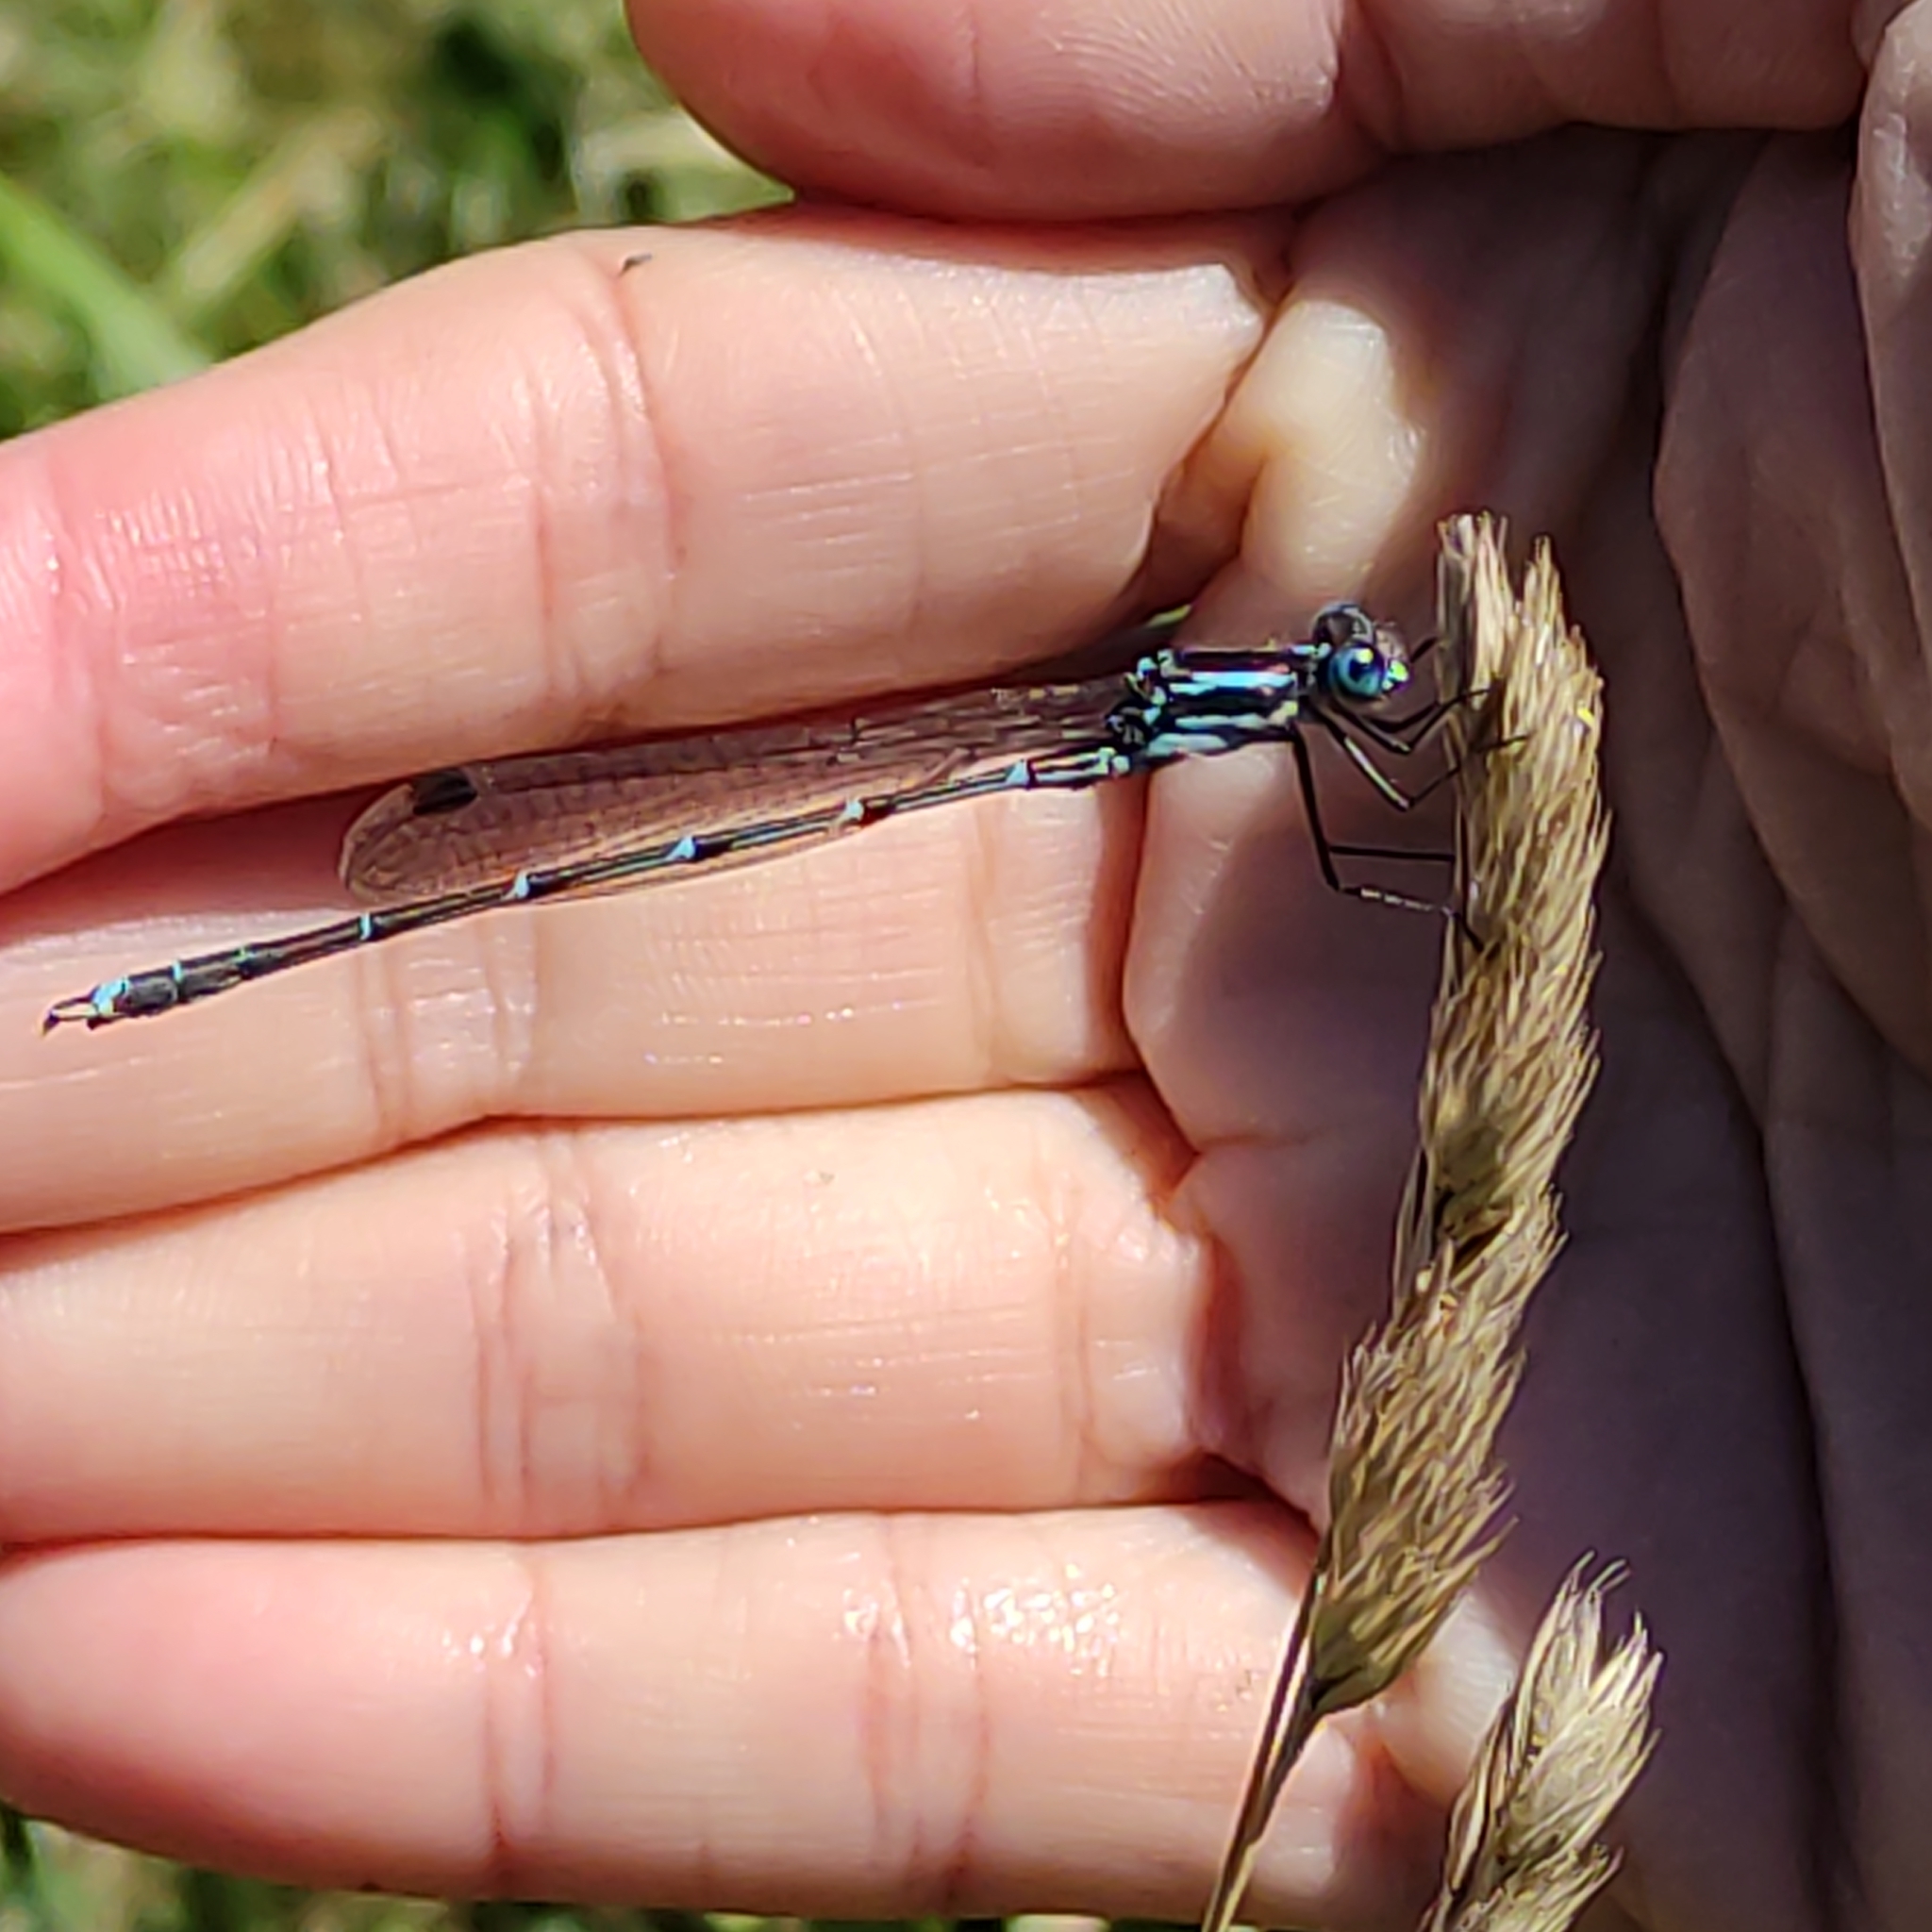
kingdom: Animalia
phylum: Arthropoda
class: Insecta
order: Odonata
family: Lestidae
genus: Austrolestes
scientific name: Austrolestes colensonis
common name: Blue damselfly
